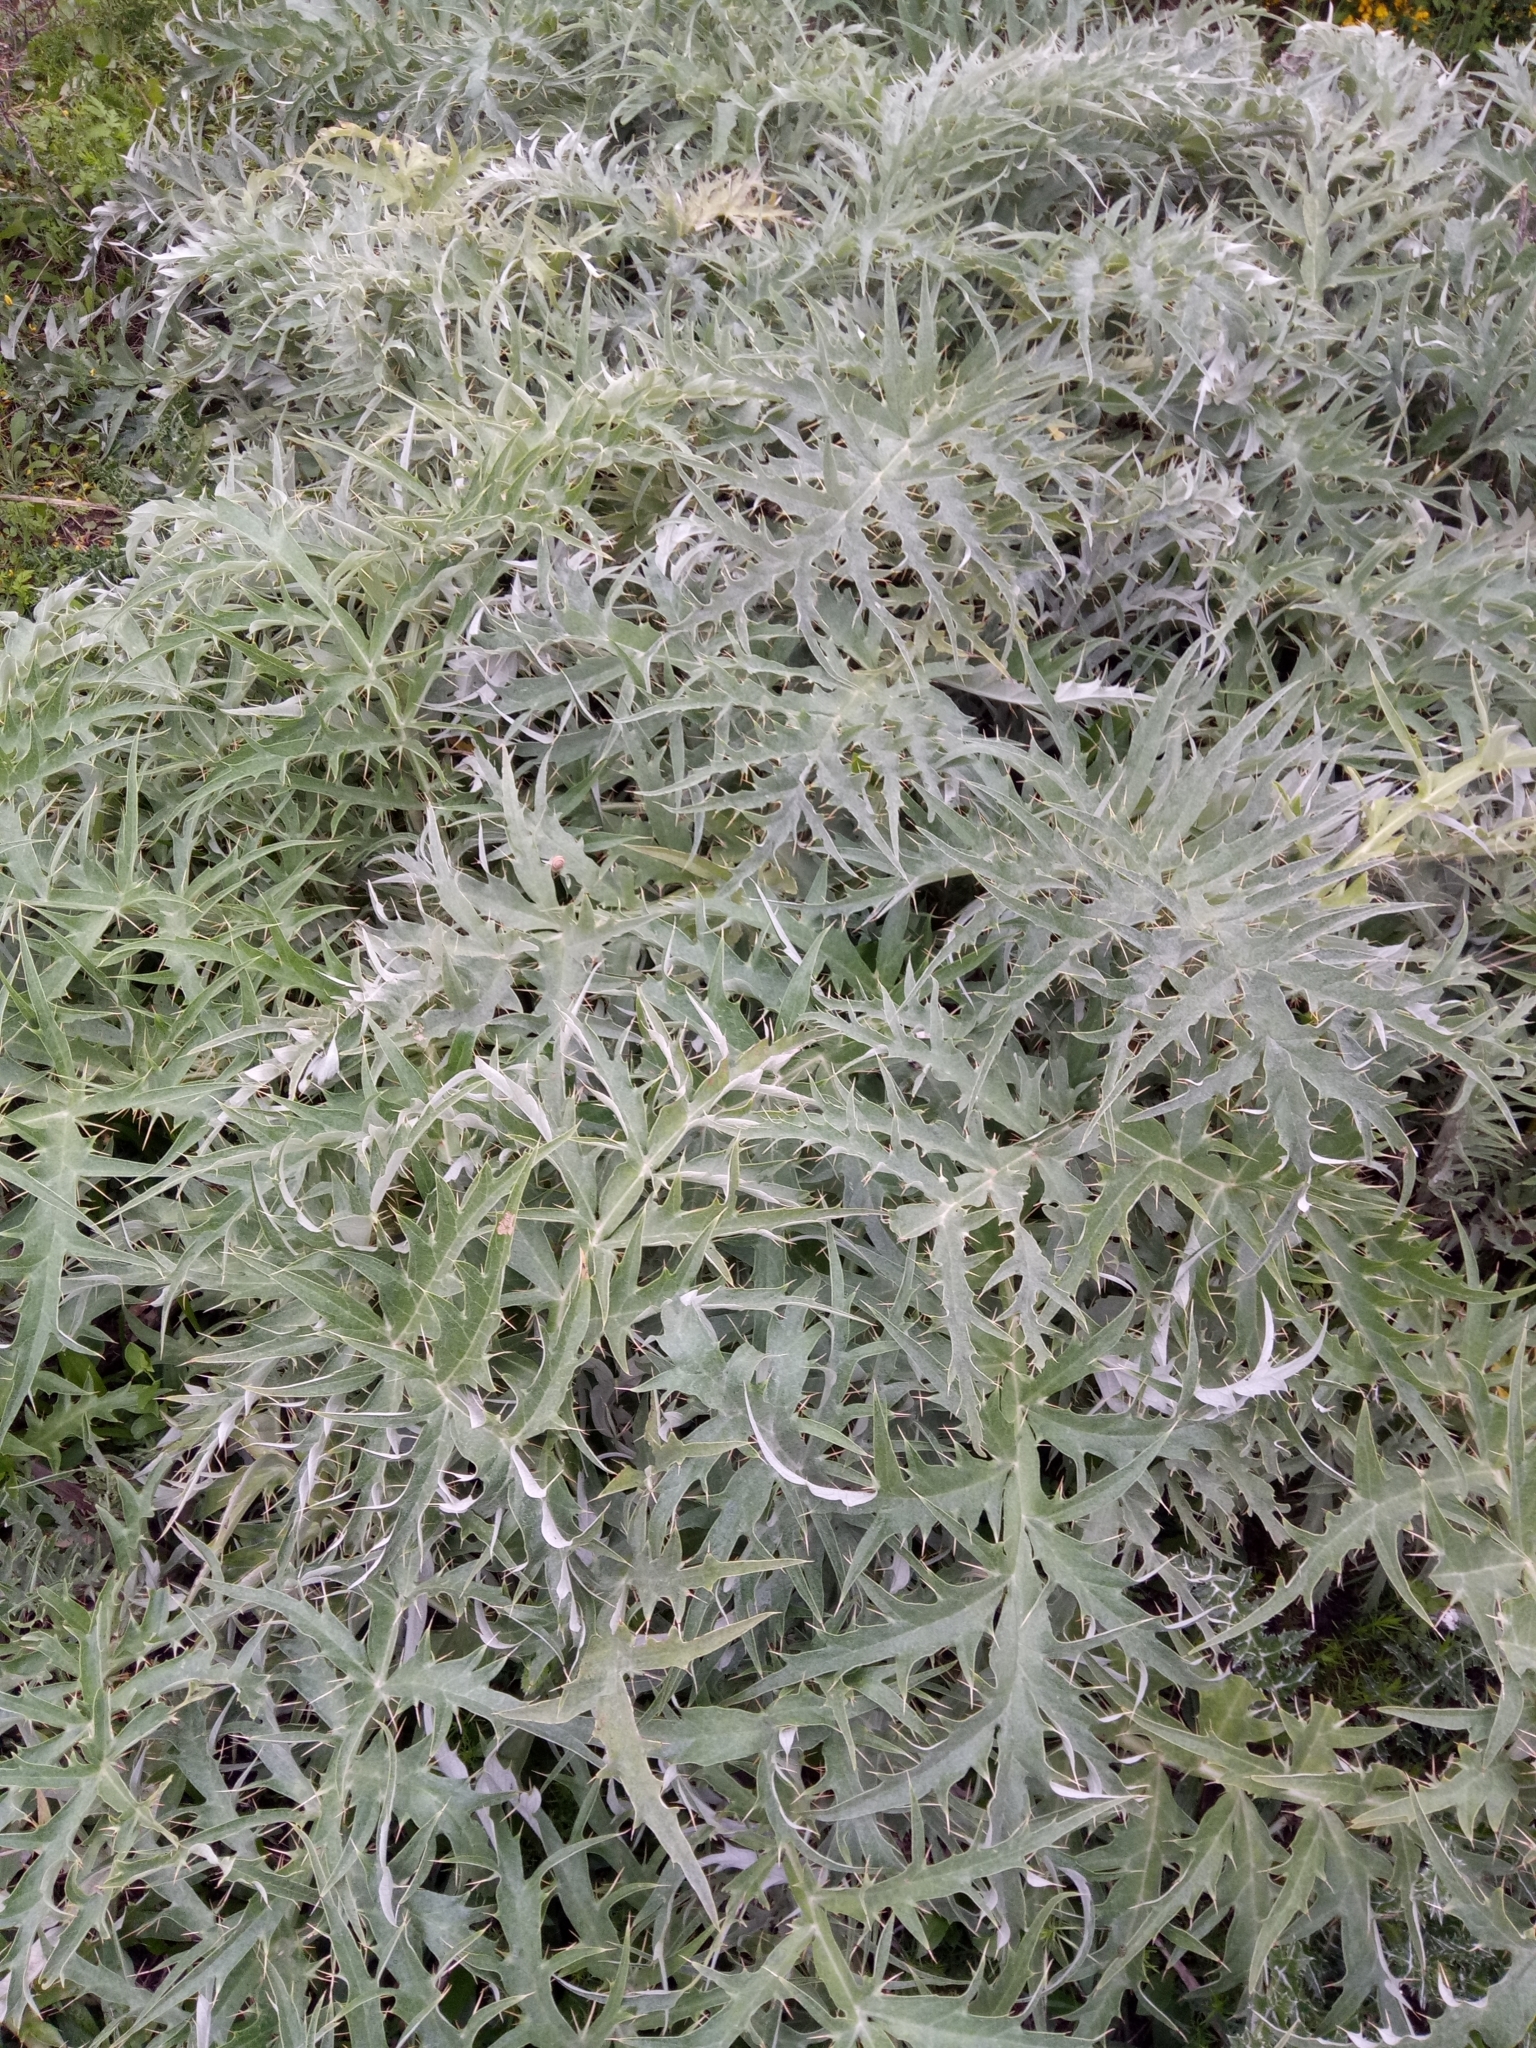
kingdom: Plantae
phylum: Tracheophyta
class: Magnoliopsida
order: Asterales
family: Asteraceae
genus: Cynara
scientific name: Cynara cardunculus
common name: Globe artichoke
